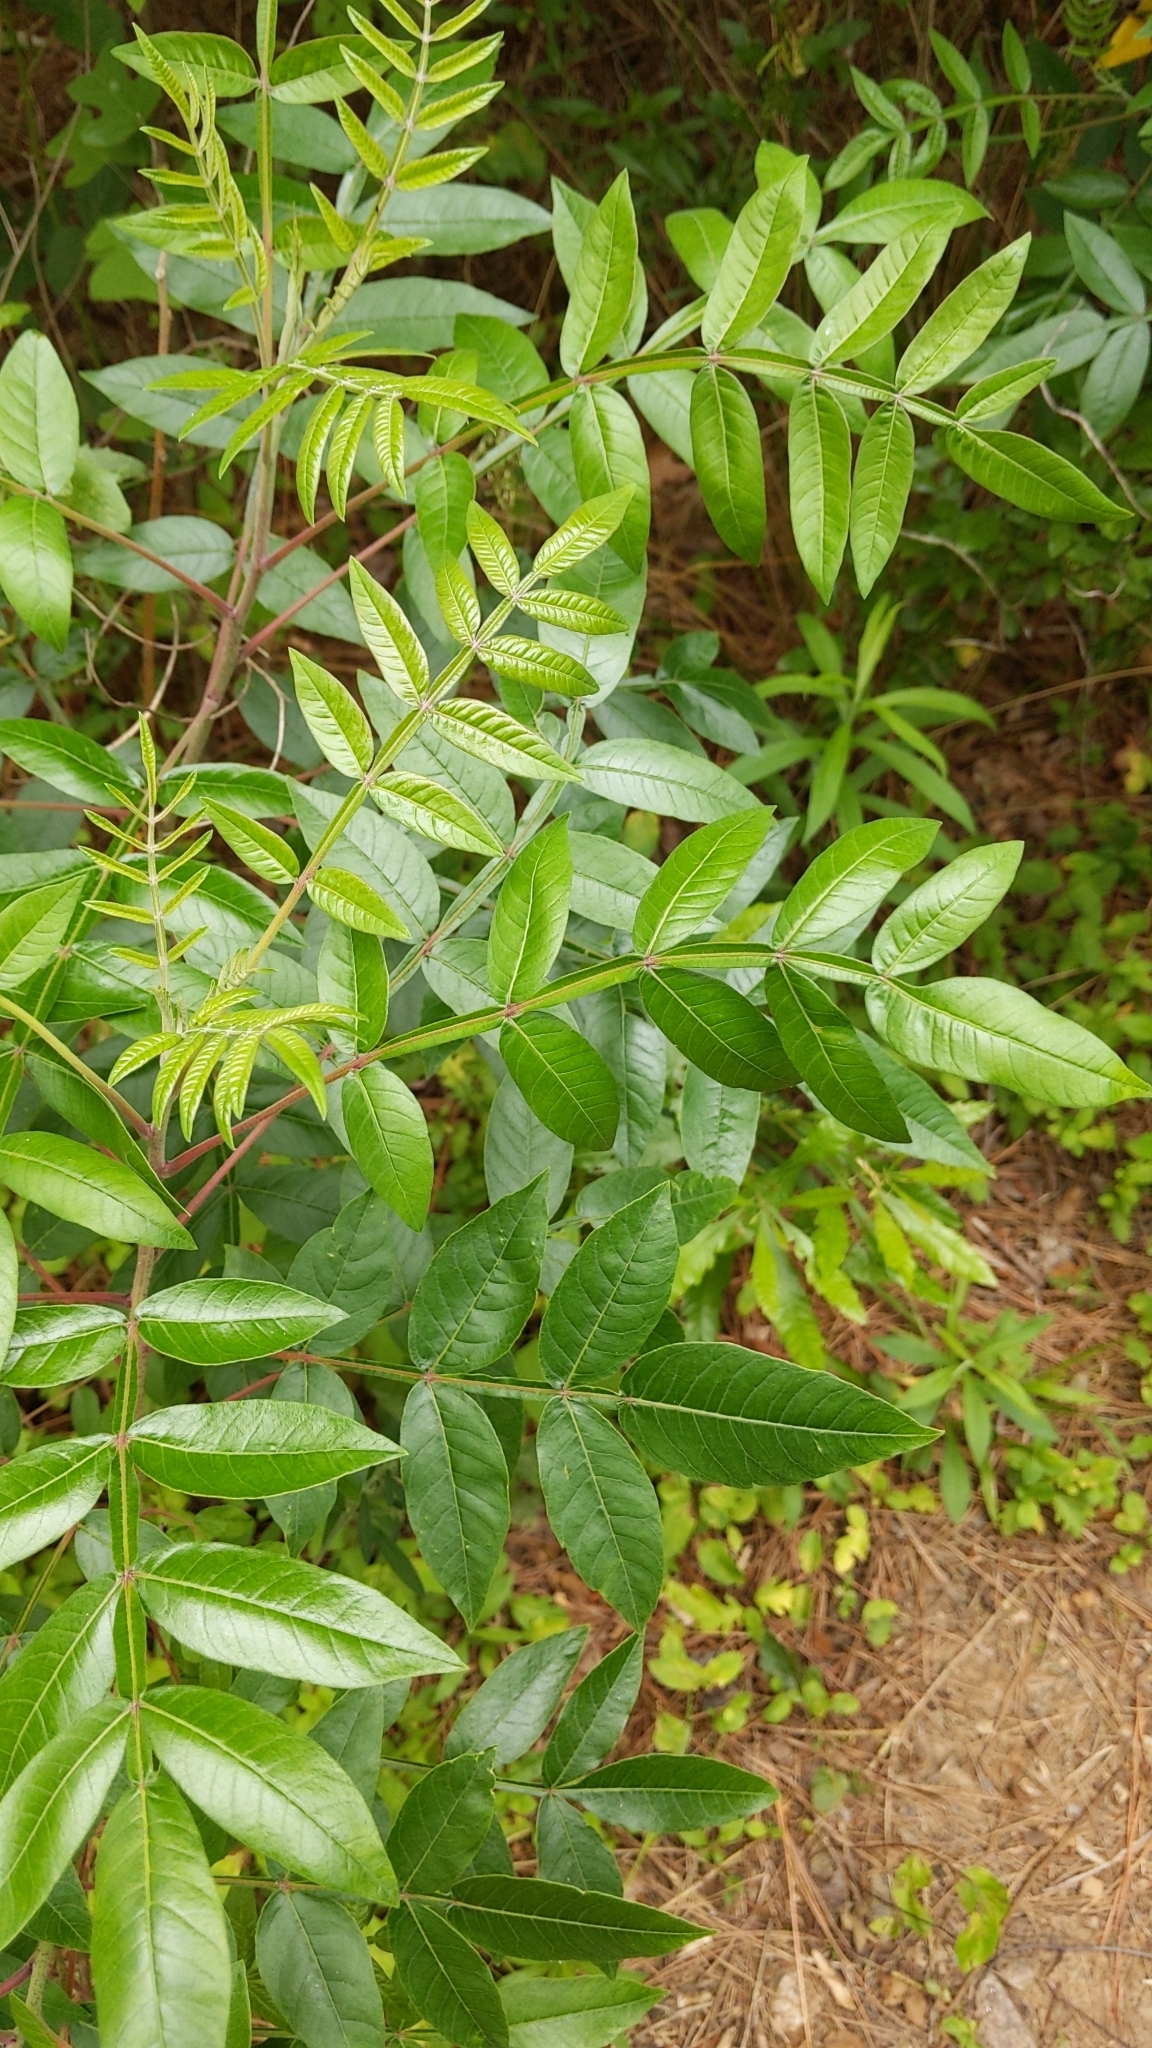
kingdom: Plantae
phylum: Tracheophyta
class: Magnoliopsida
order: Sapindales
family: Anacardiaceae
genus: Rhus
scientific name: Rhus copallina
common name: Shining sumac
